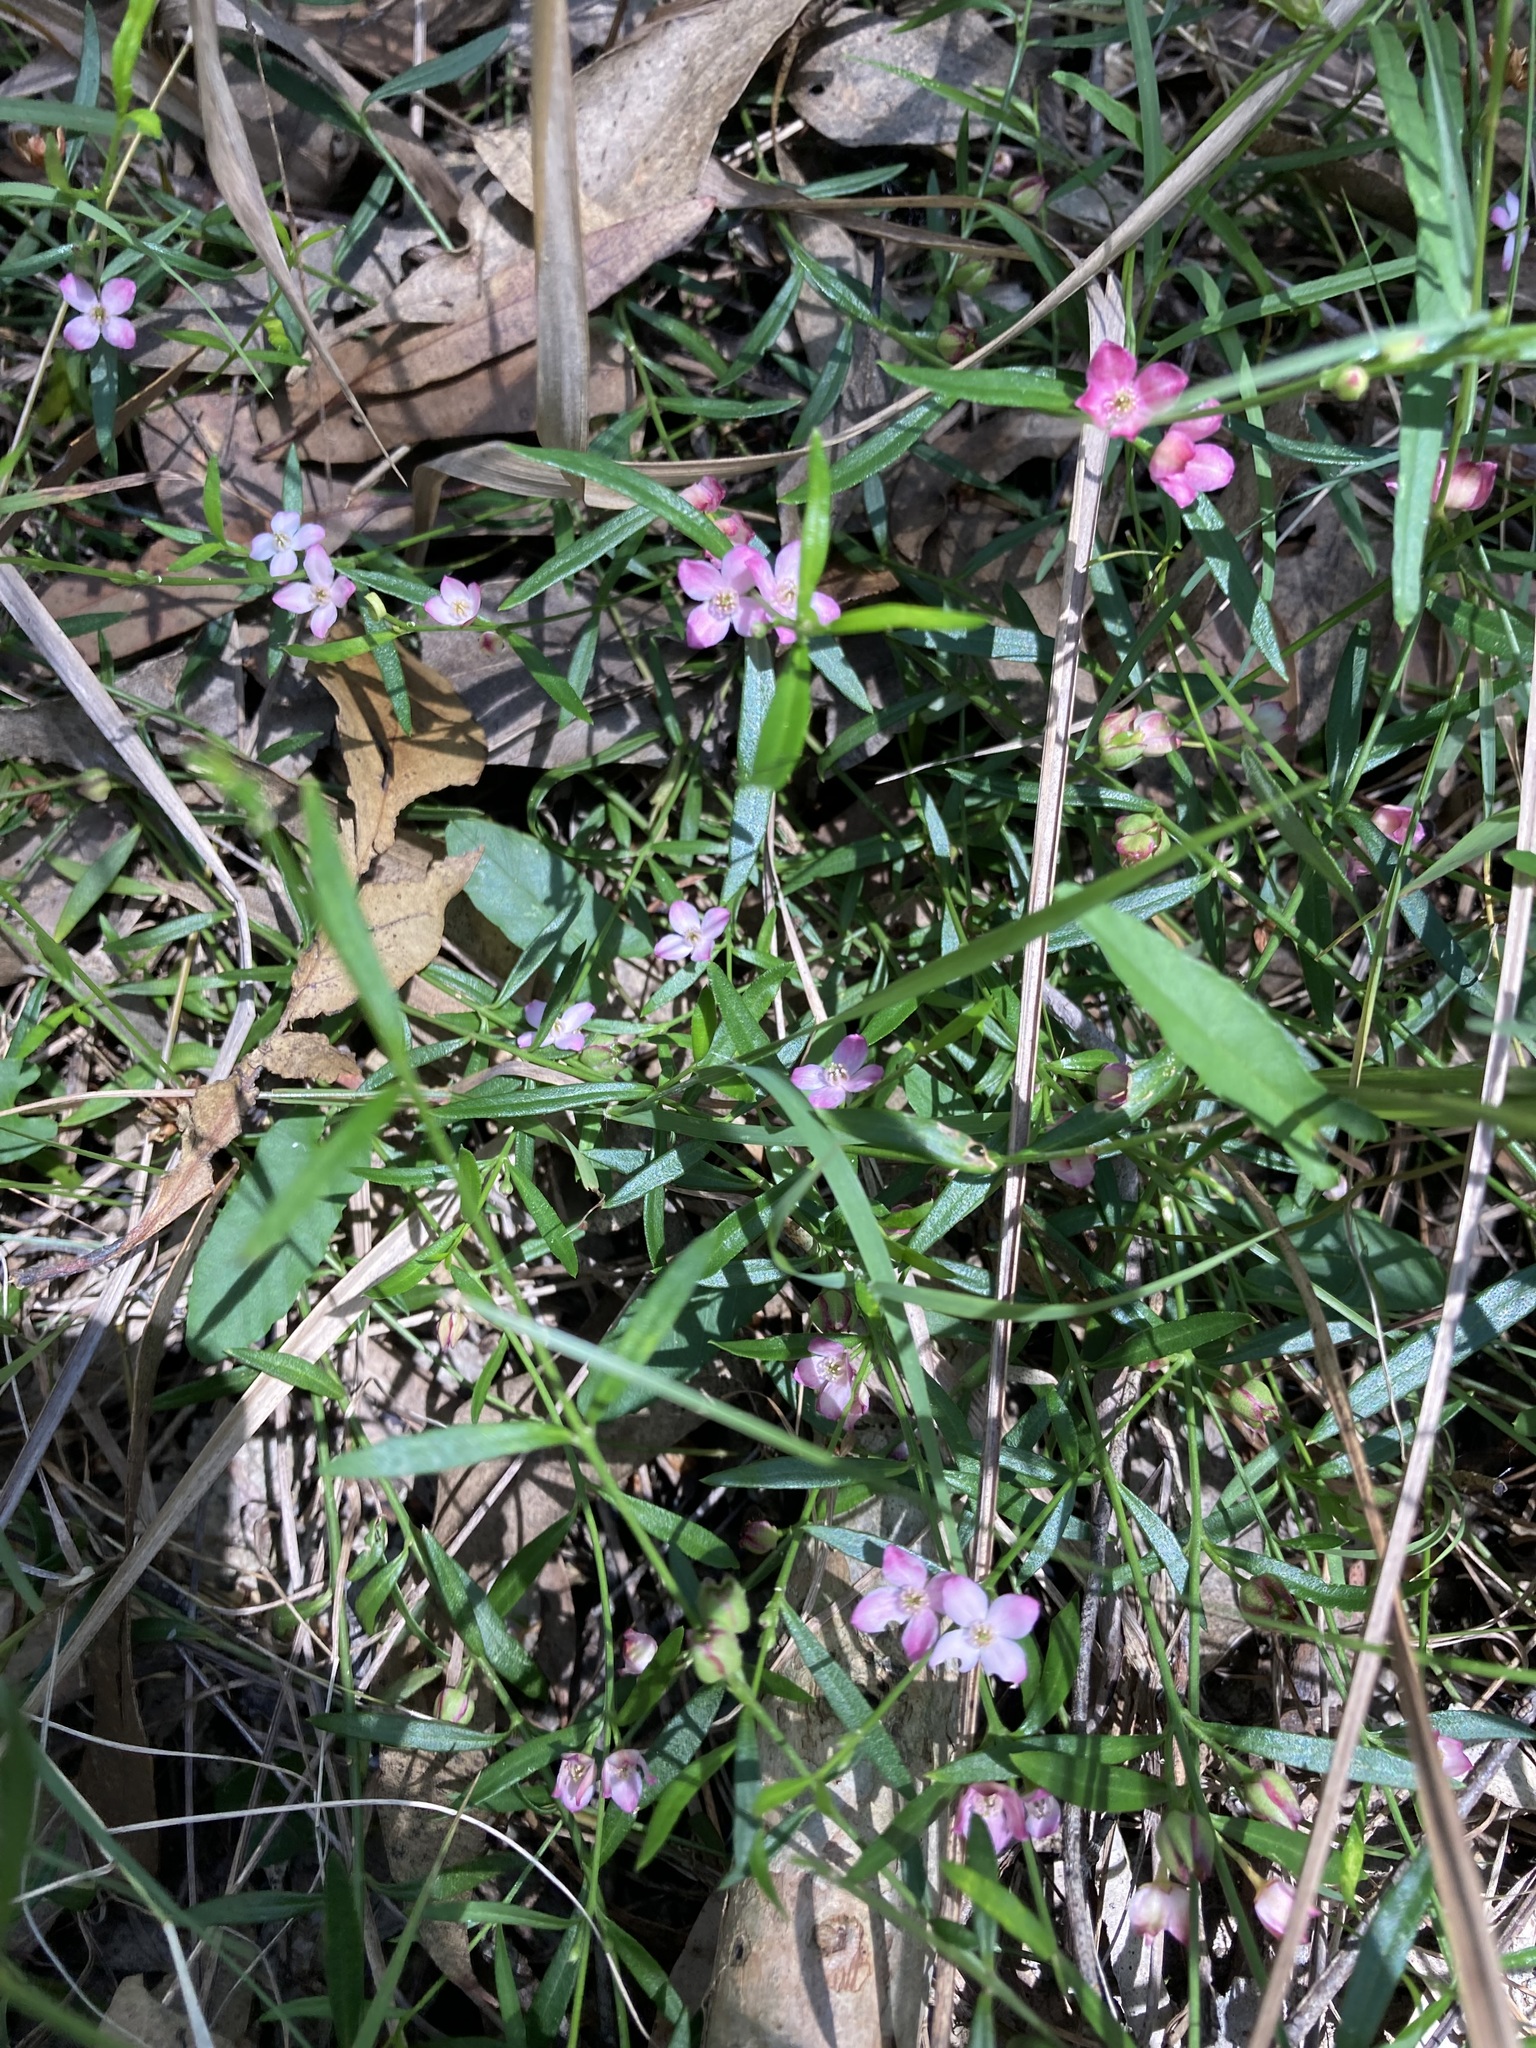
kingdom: Plantae
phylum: Tracheophyta
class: Magnoliopsida
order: Sapindales
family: Rutaceae
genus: Cyanothamnus
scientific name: Cyanothamnus polygalifolius
